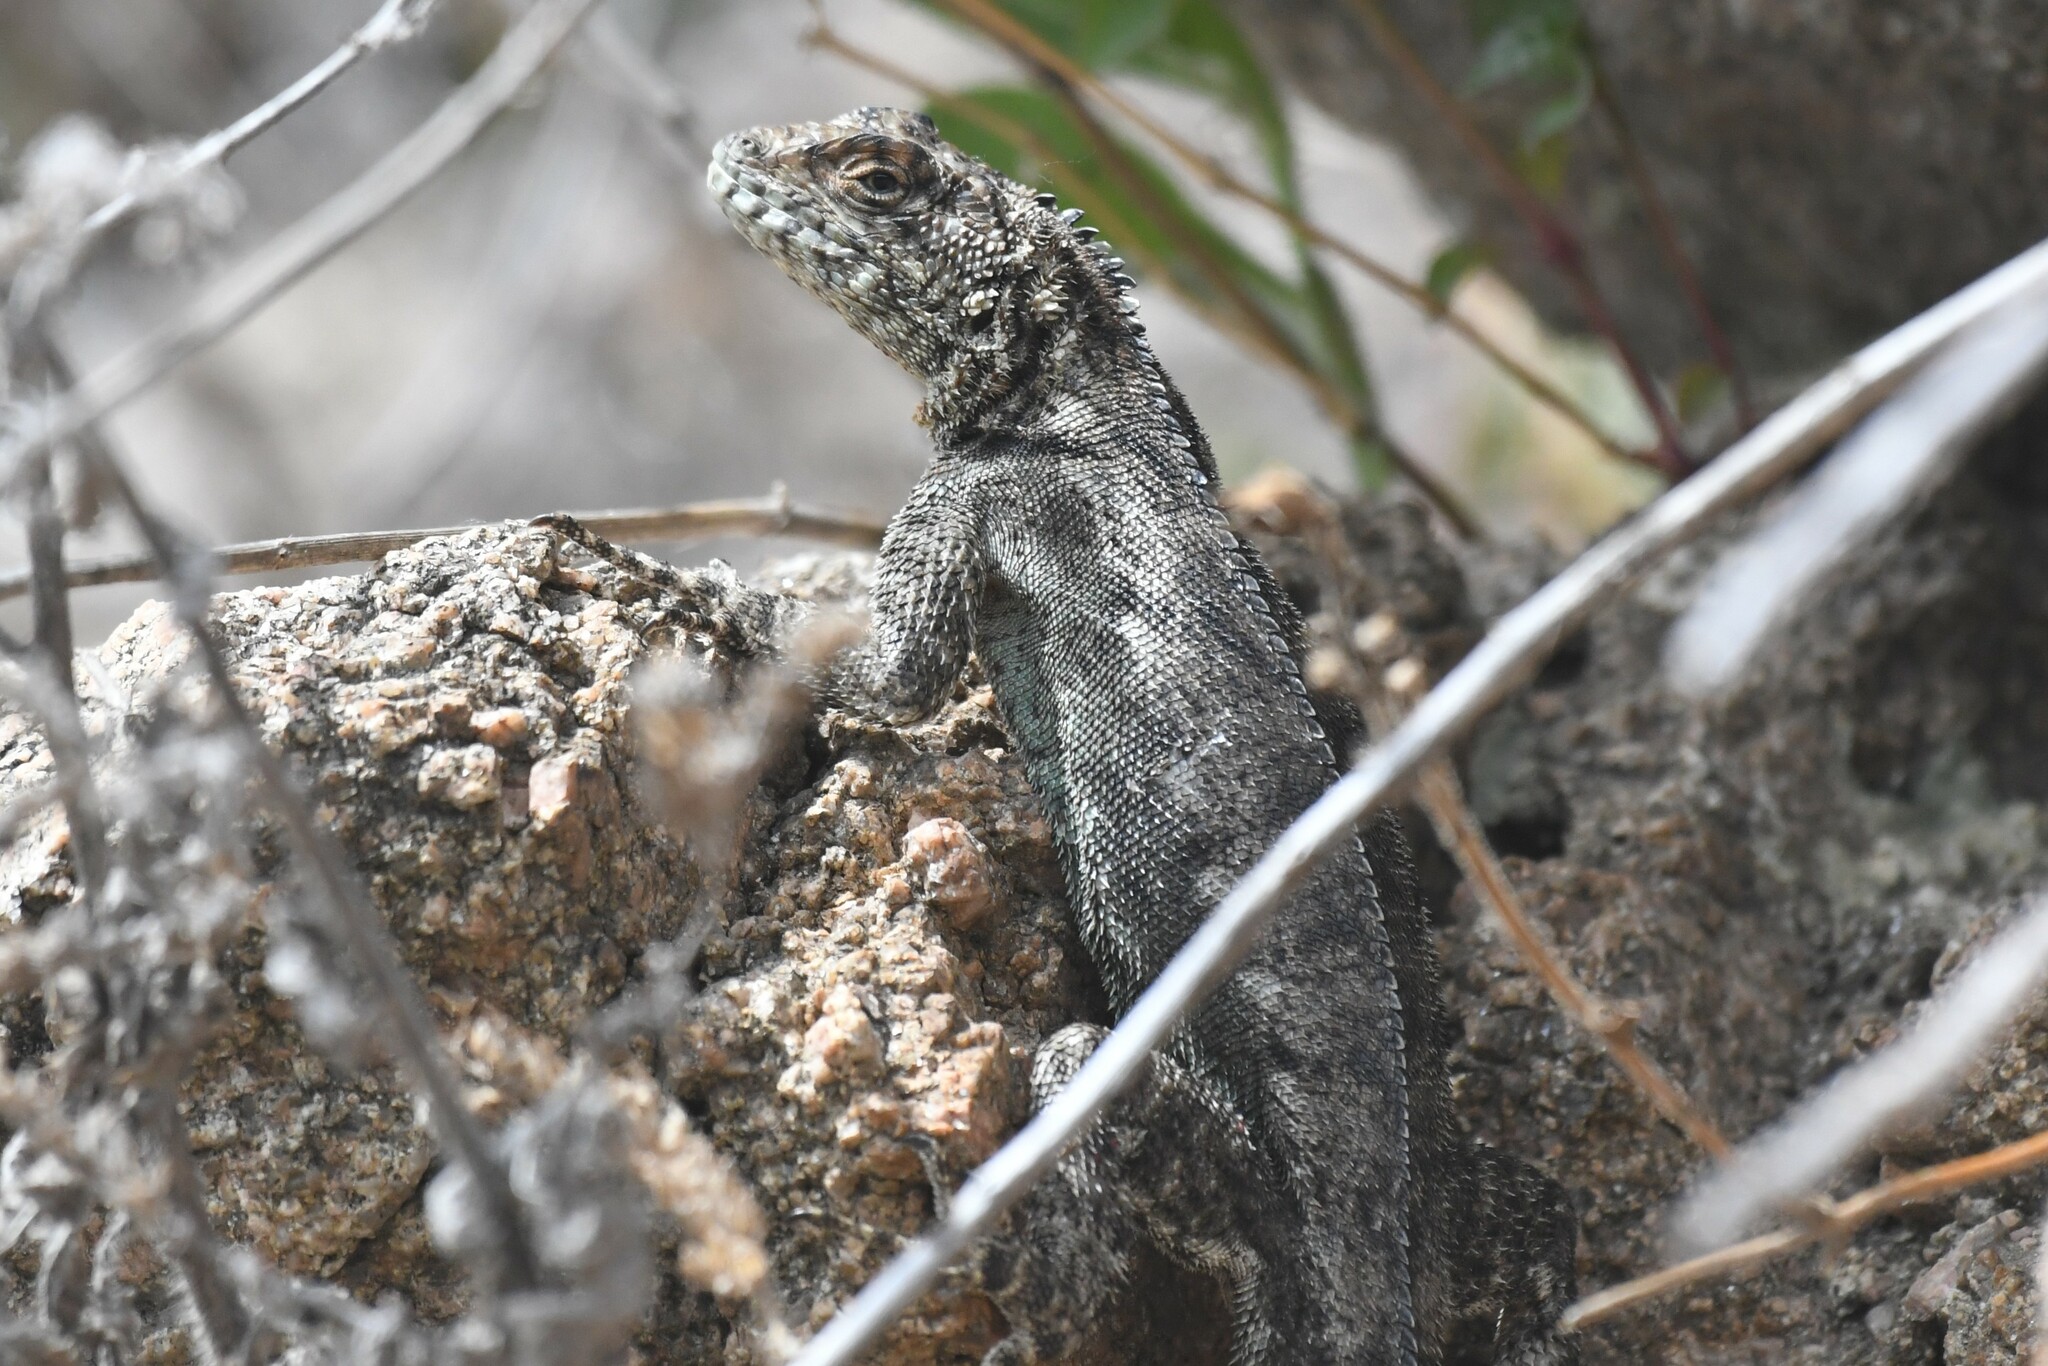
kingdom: Animalia
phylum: Chordata
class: Squamata
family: Tropiduridae
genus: Tropidurus
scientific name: Tropidurus spinulosus
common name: Spiny lava lizard
